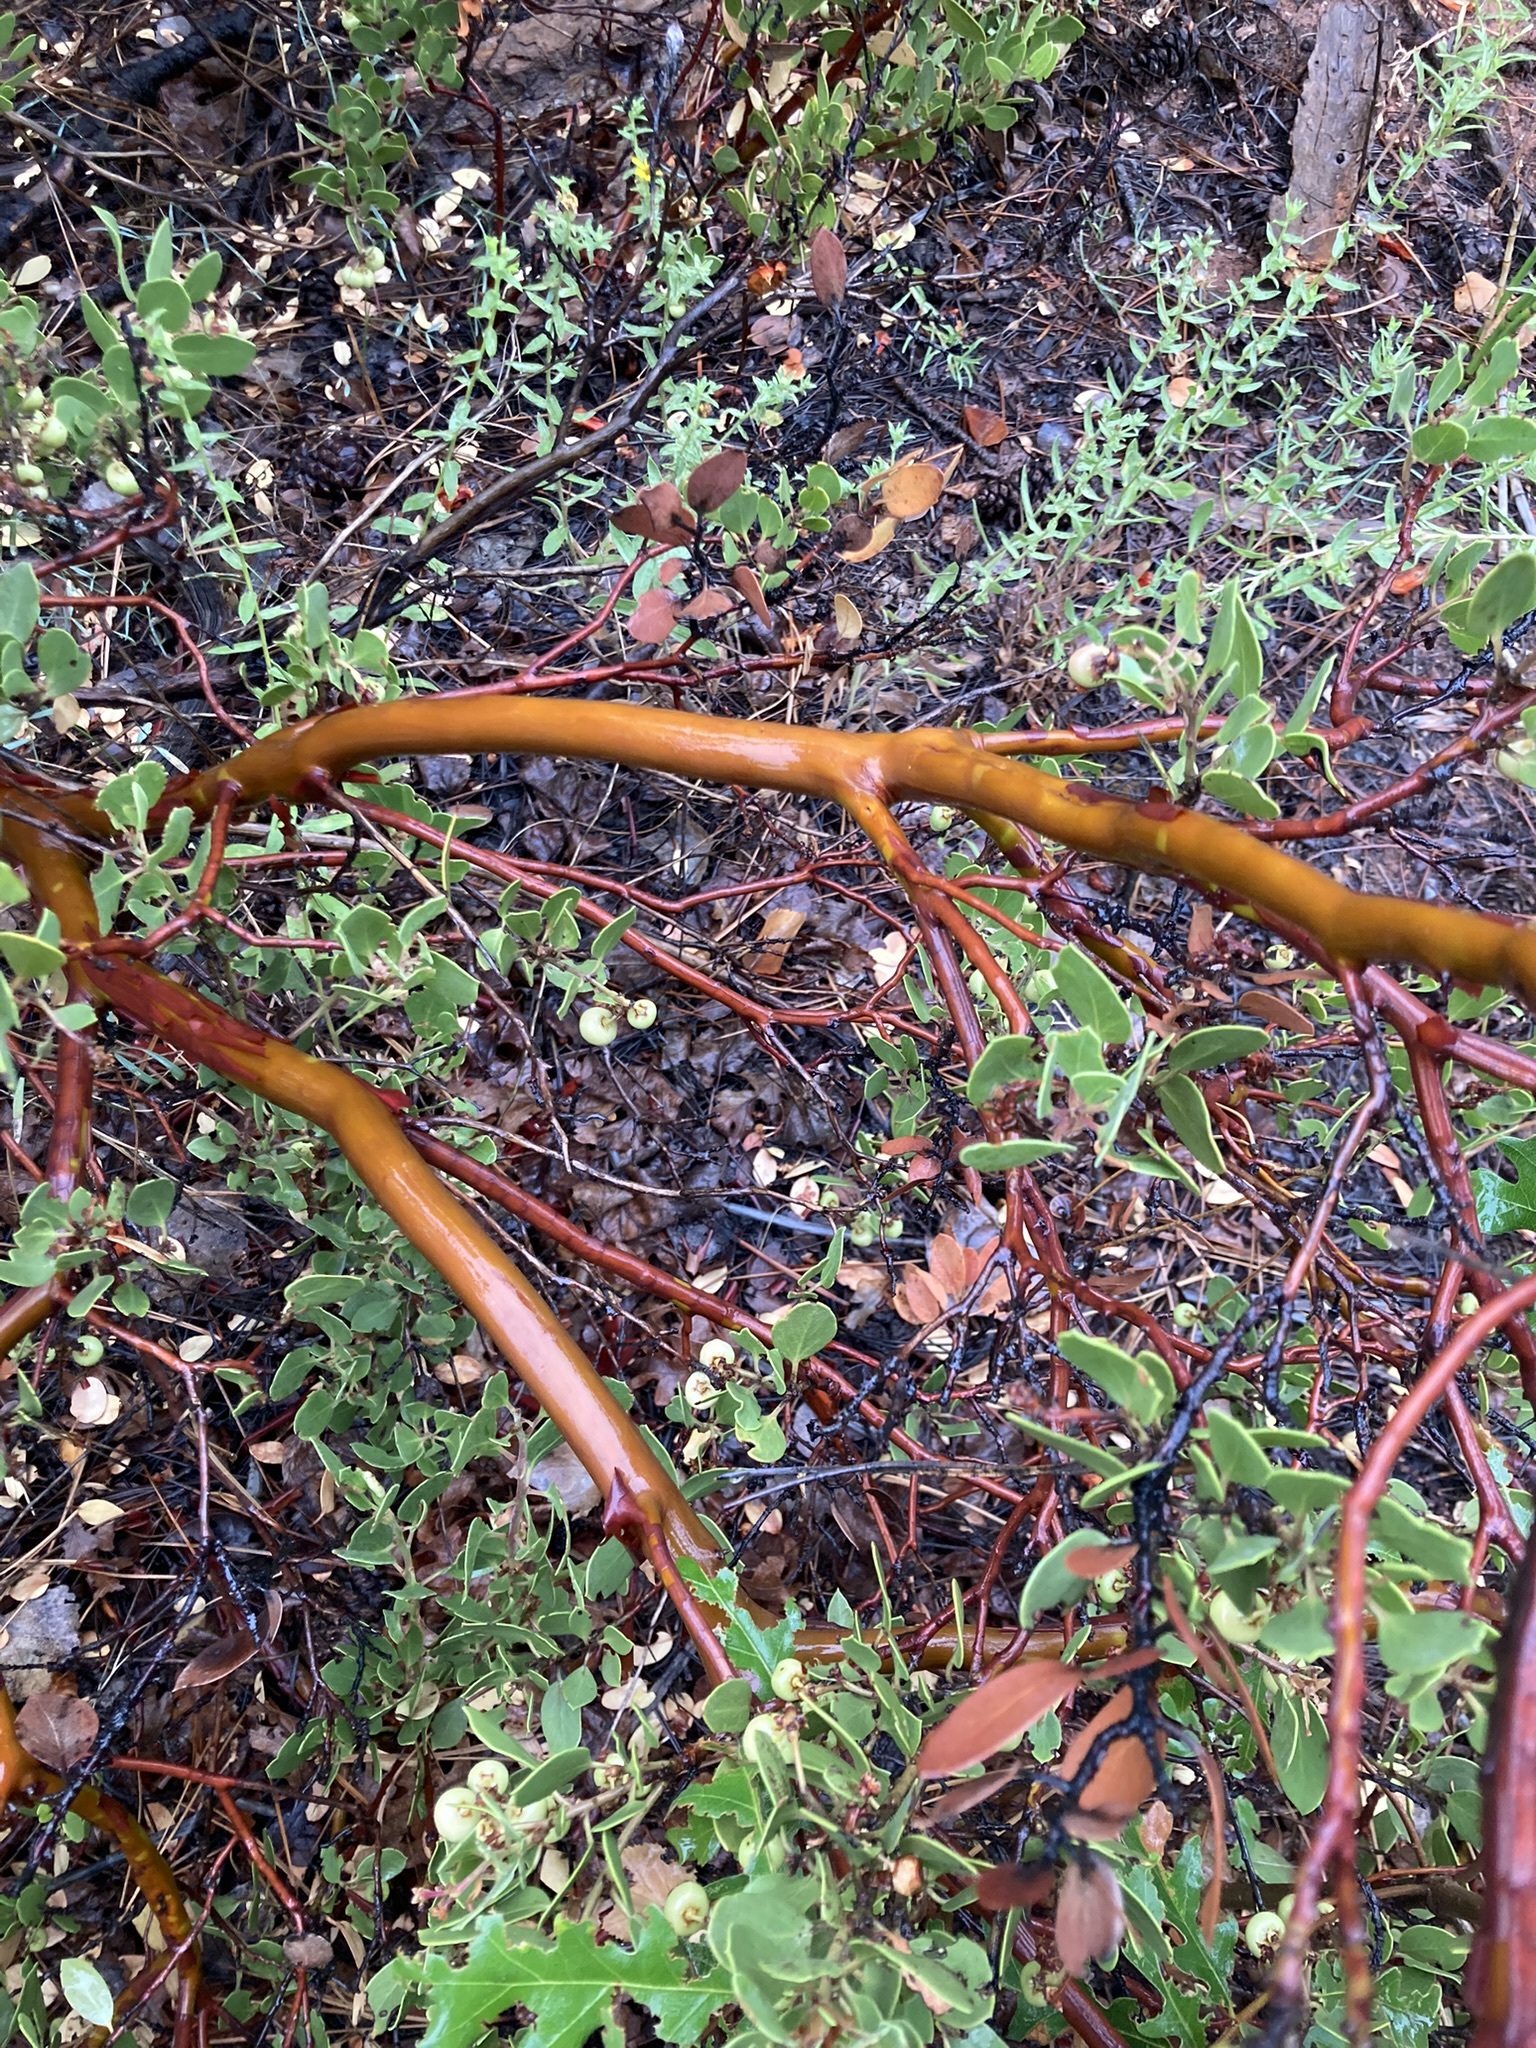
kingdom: Plantae
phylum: Tracheophyta
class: Magnoliopsida
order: Ericales
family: Ericaceae
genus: Arctostaphylos
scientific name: Arctostaphylos pungens
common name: Mexican manzanita
